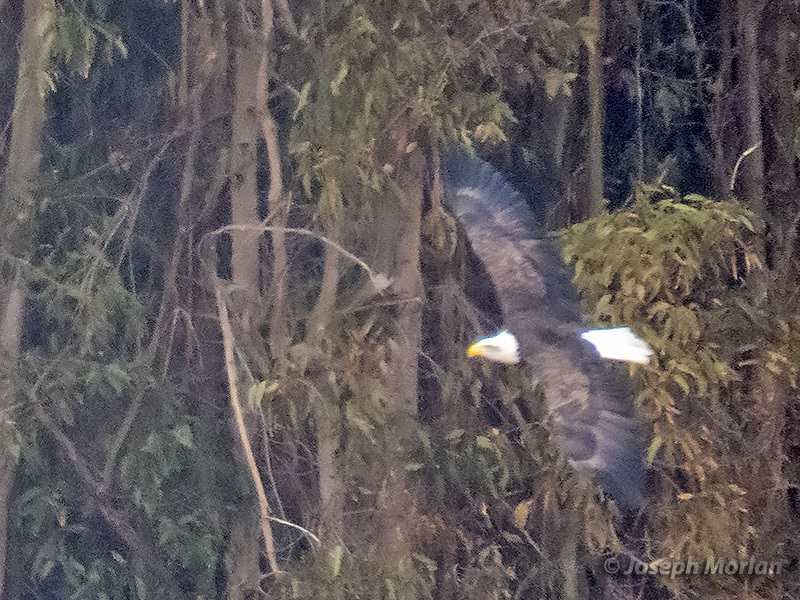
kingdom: Animalia
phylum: Chordata
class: Aves
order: Accipitriformes
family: Accipitridae
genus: Haliaeetus
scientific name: Haliaeetus leucocephalus
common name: Bald eagle
